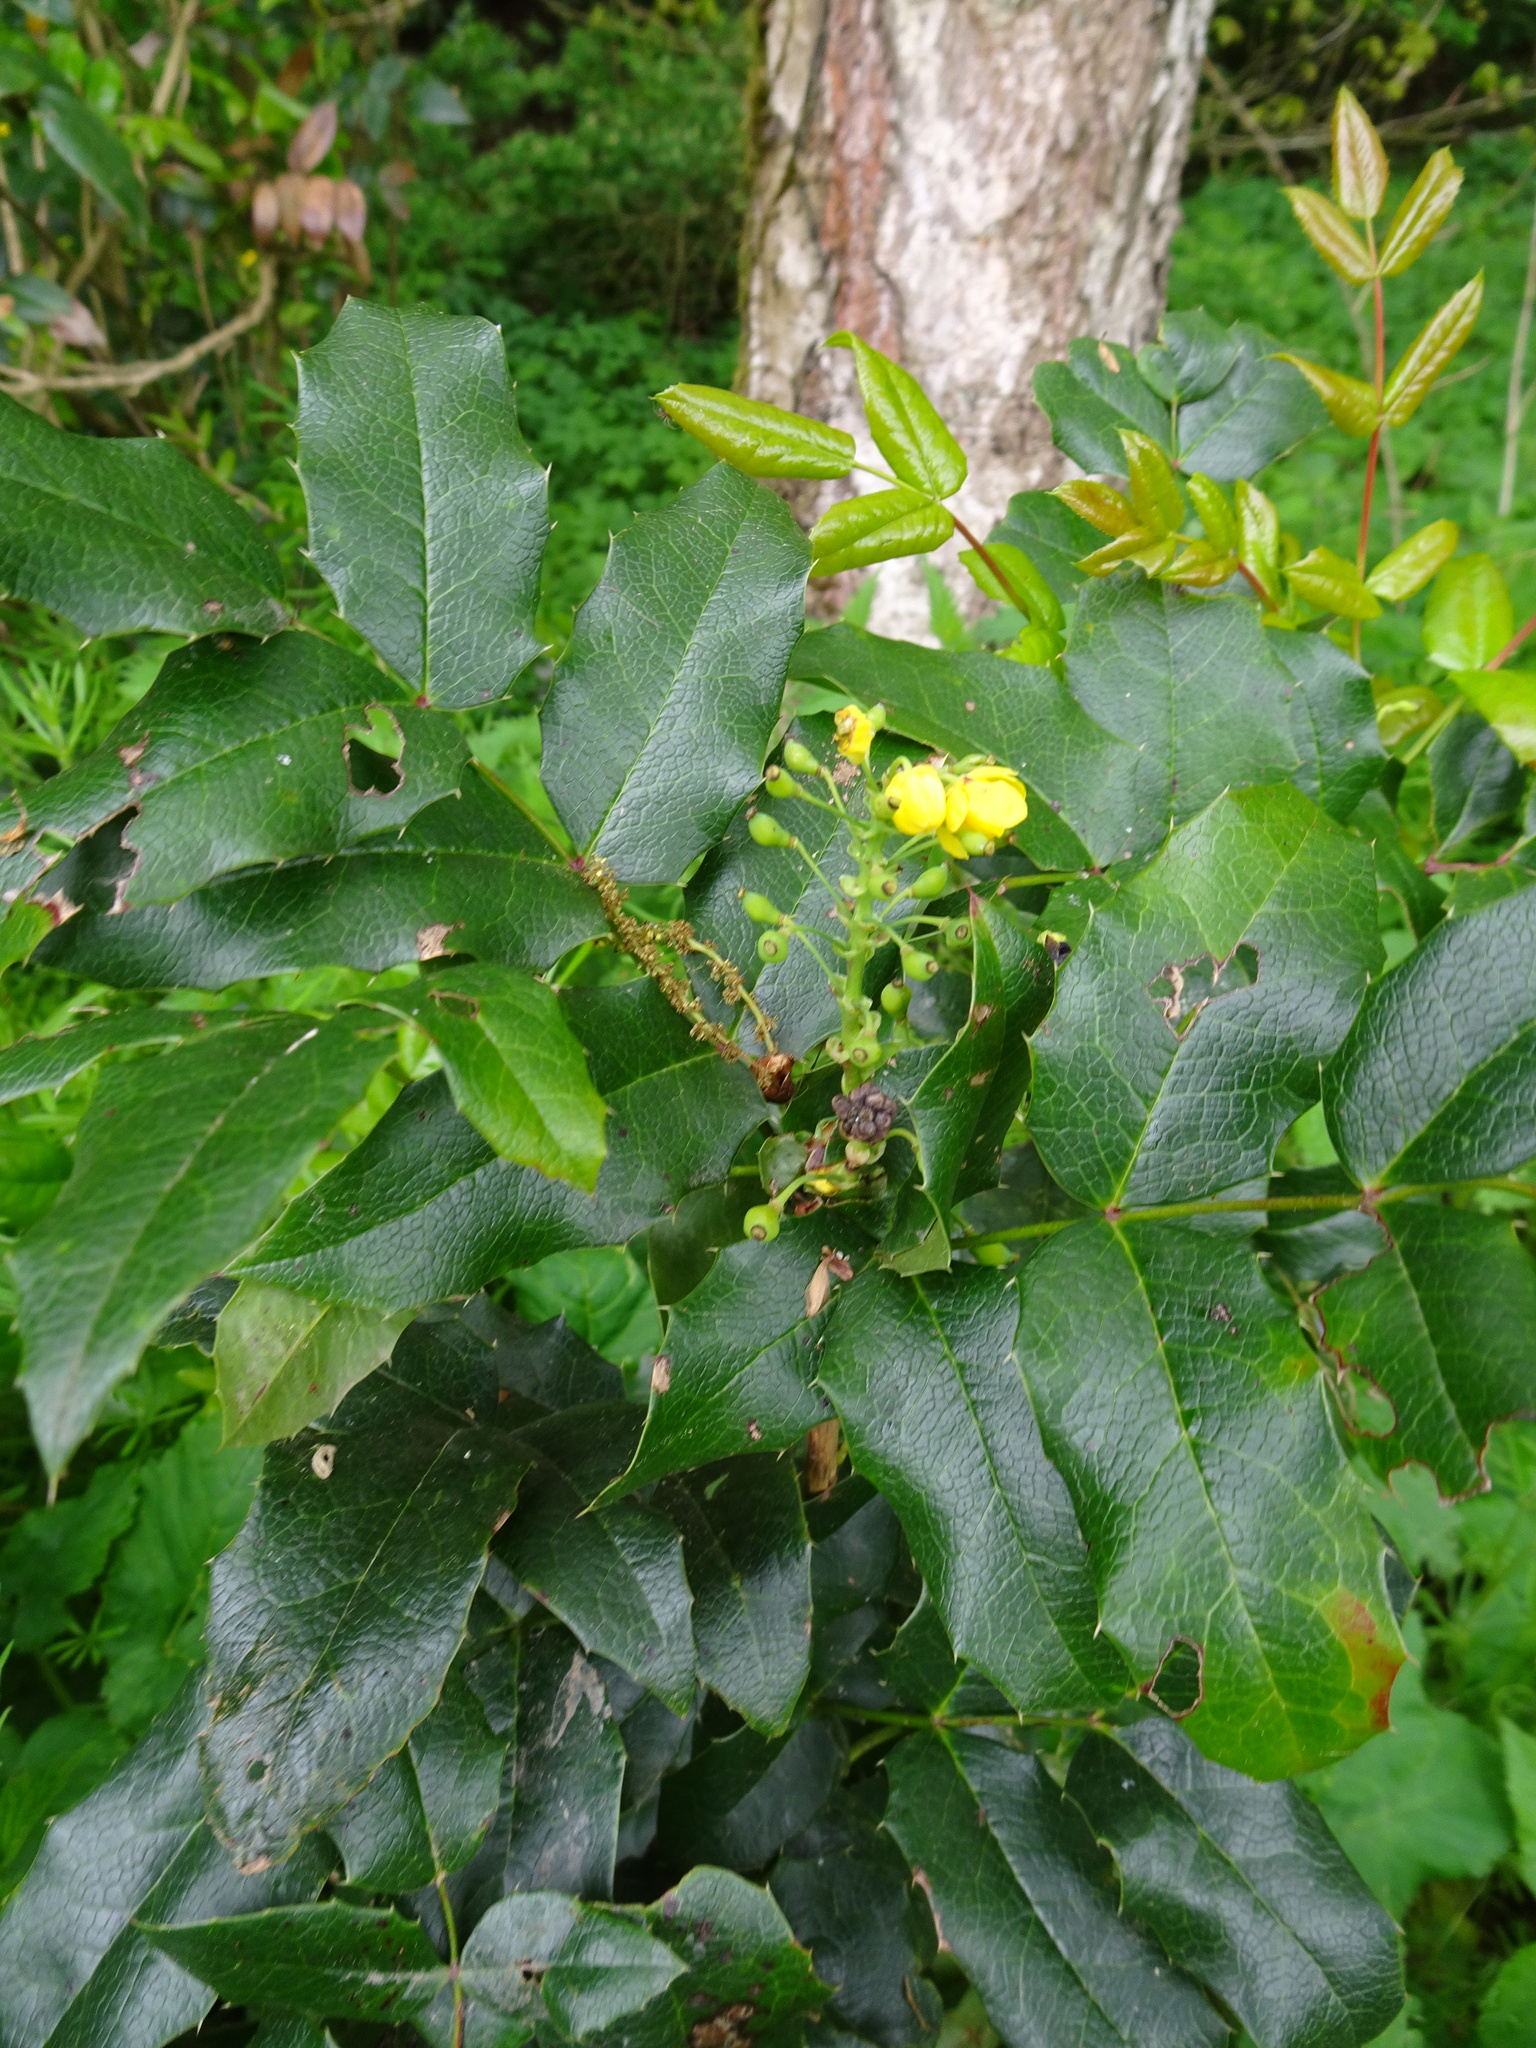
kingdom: Plantae
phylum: Tracheophyta
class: Magnoliopsida
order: Ranunculales
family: Berberidaceae
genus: Mahonia
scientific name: Mahonia aquifolium
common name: Oregon-grape
